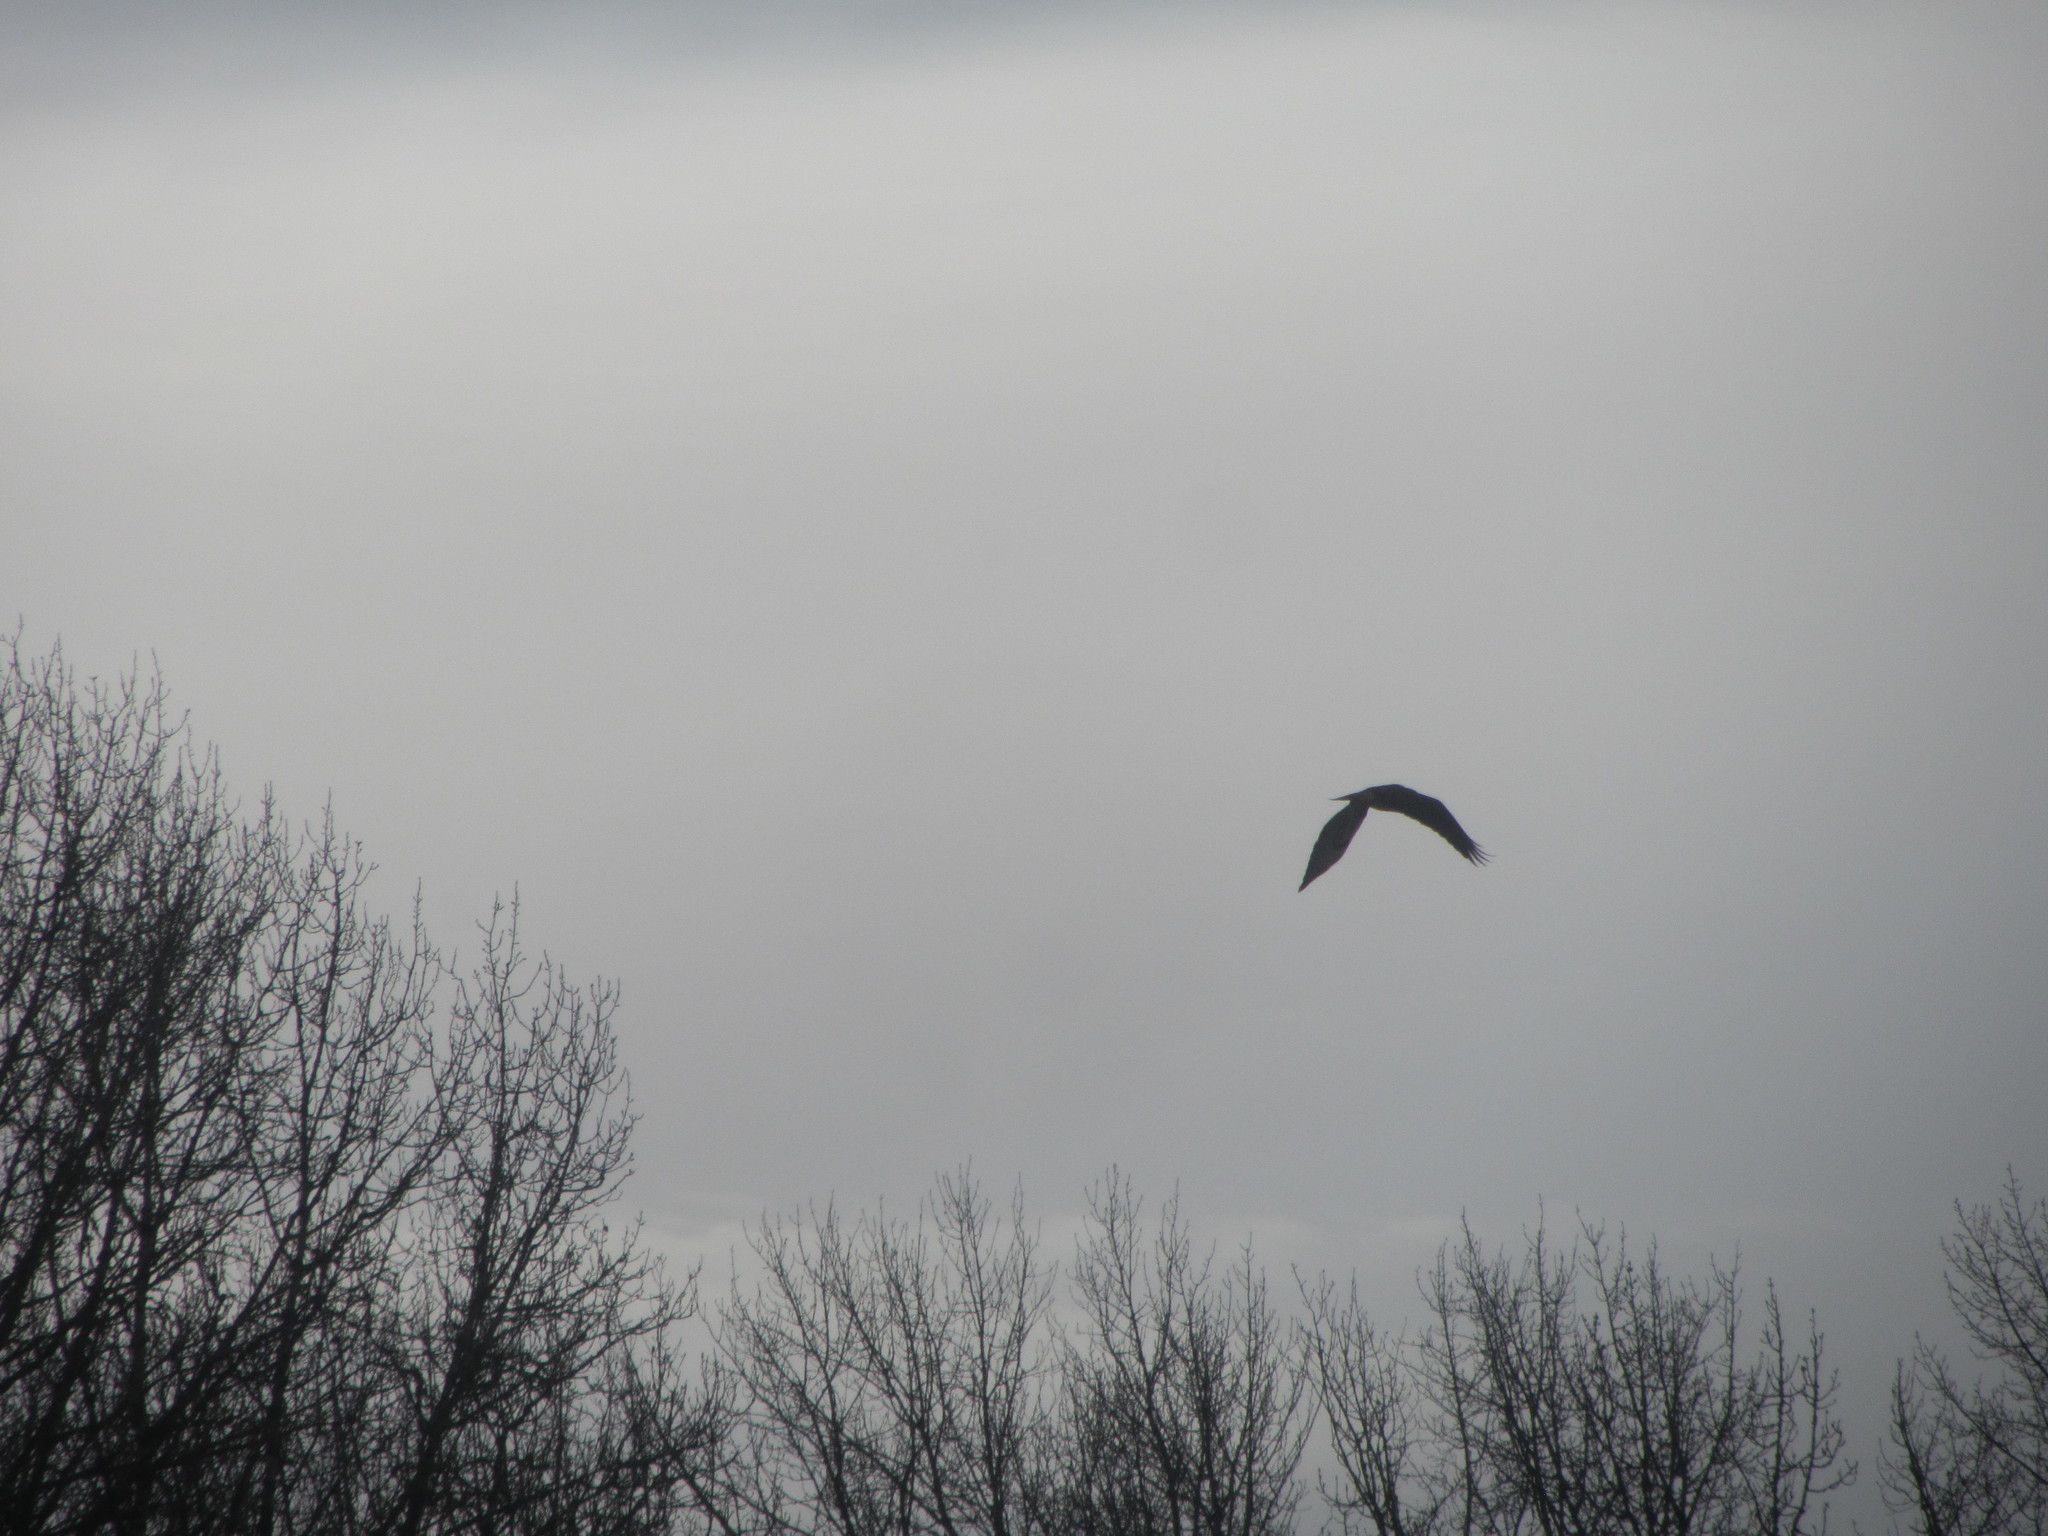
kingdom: Animalia
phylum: Chordata
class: Aves
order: Accipitriformes
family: Accipitridae
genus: Haliaeetus
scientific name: Haliaeetus leucocephalus
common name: Bald eagle
